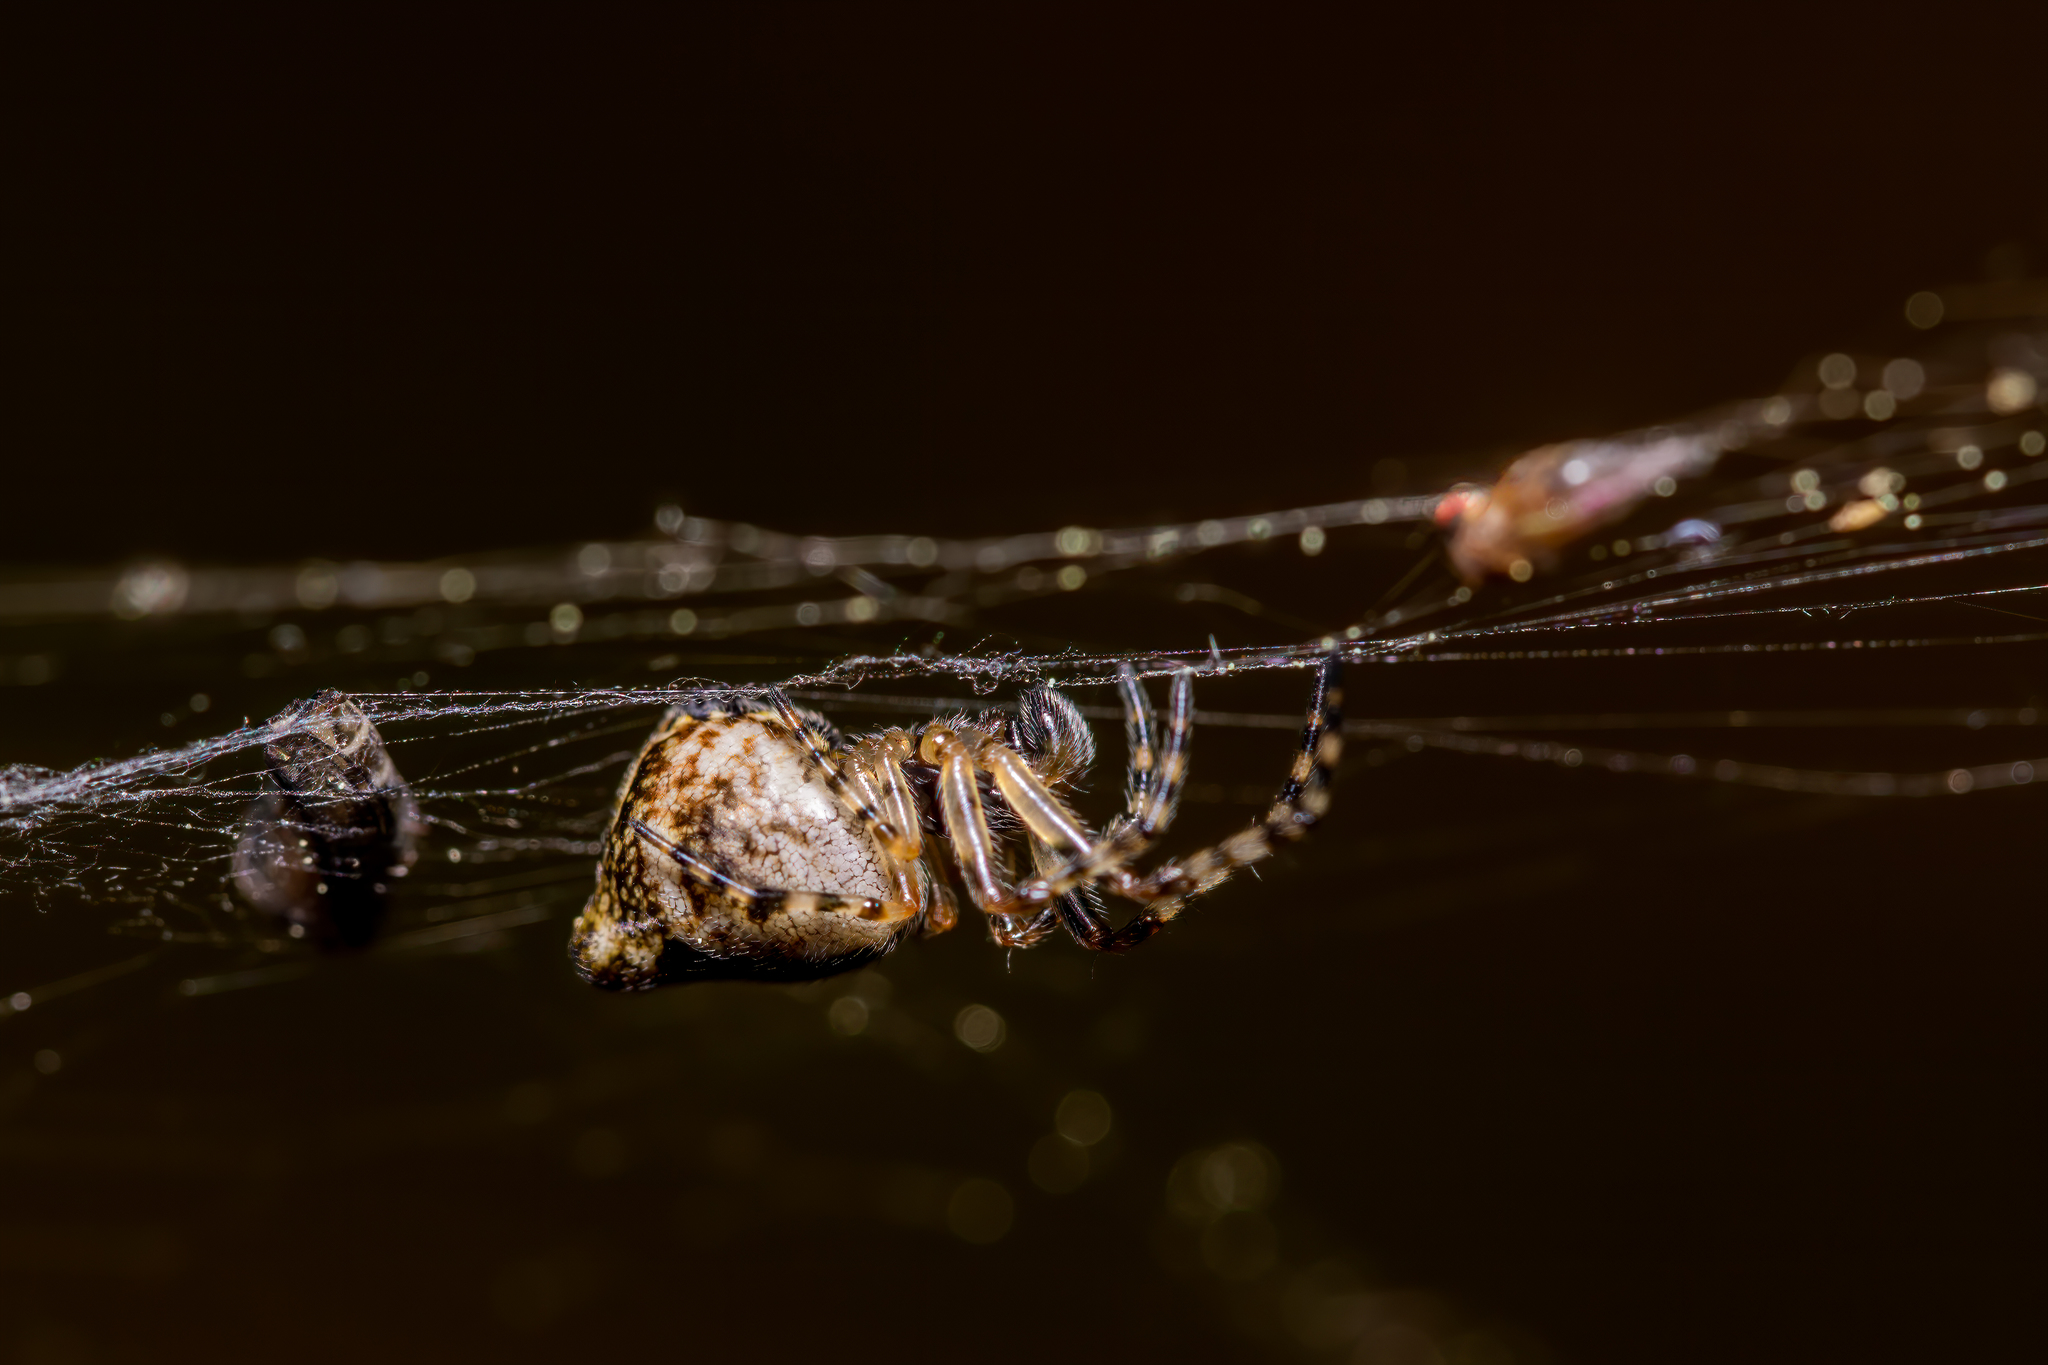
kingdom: Animalia
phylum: Arthropoda
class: Arachnida
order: Araneae
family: Araneidae
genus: Cyclosa
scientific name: Cyclosa conica
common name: Conical trashline orbweaver
